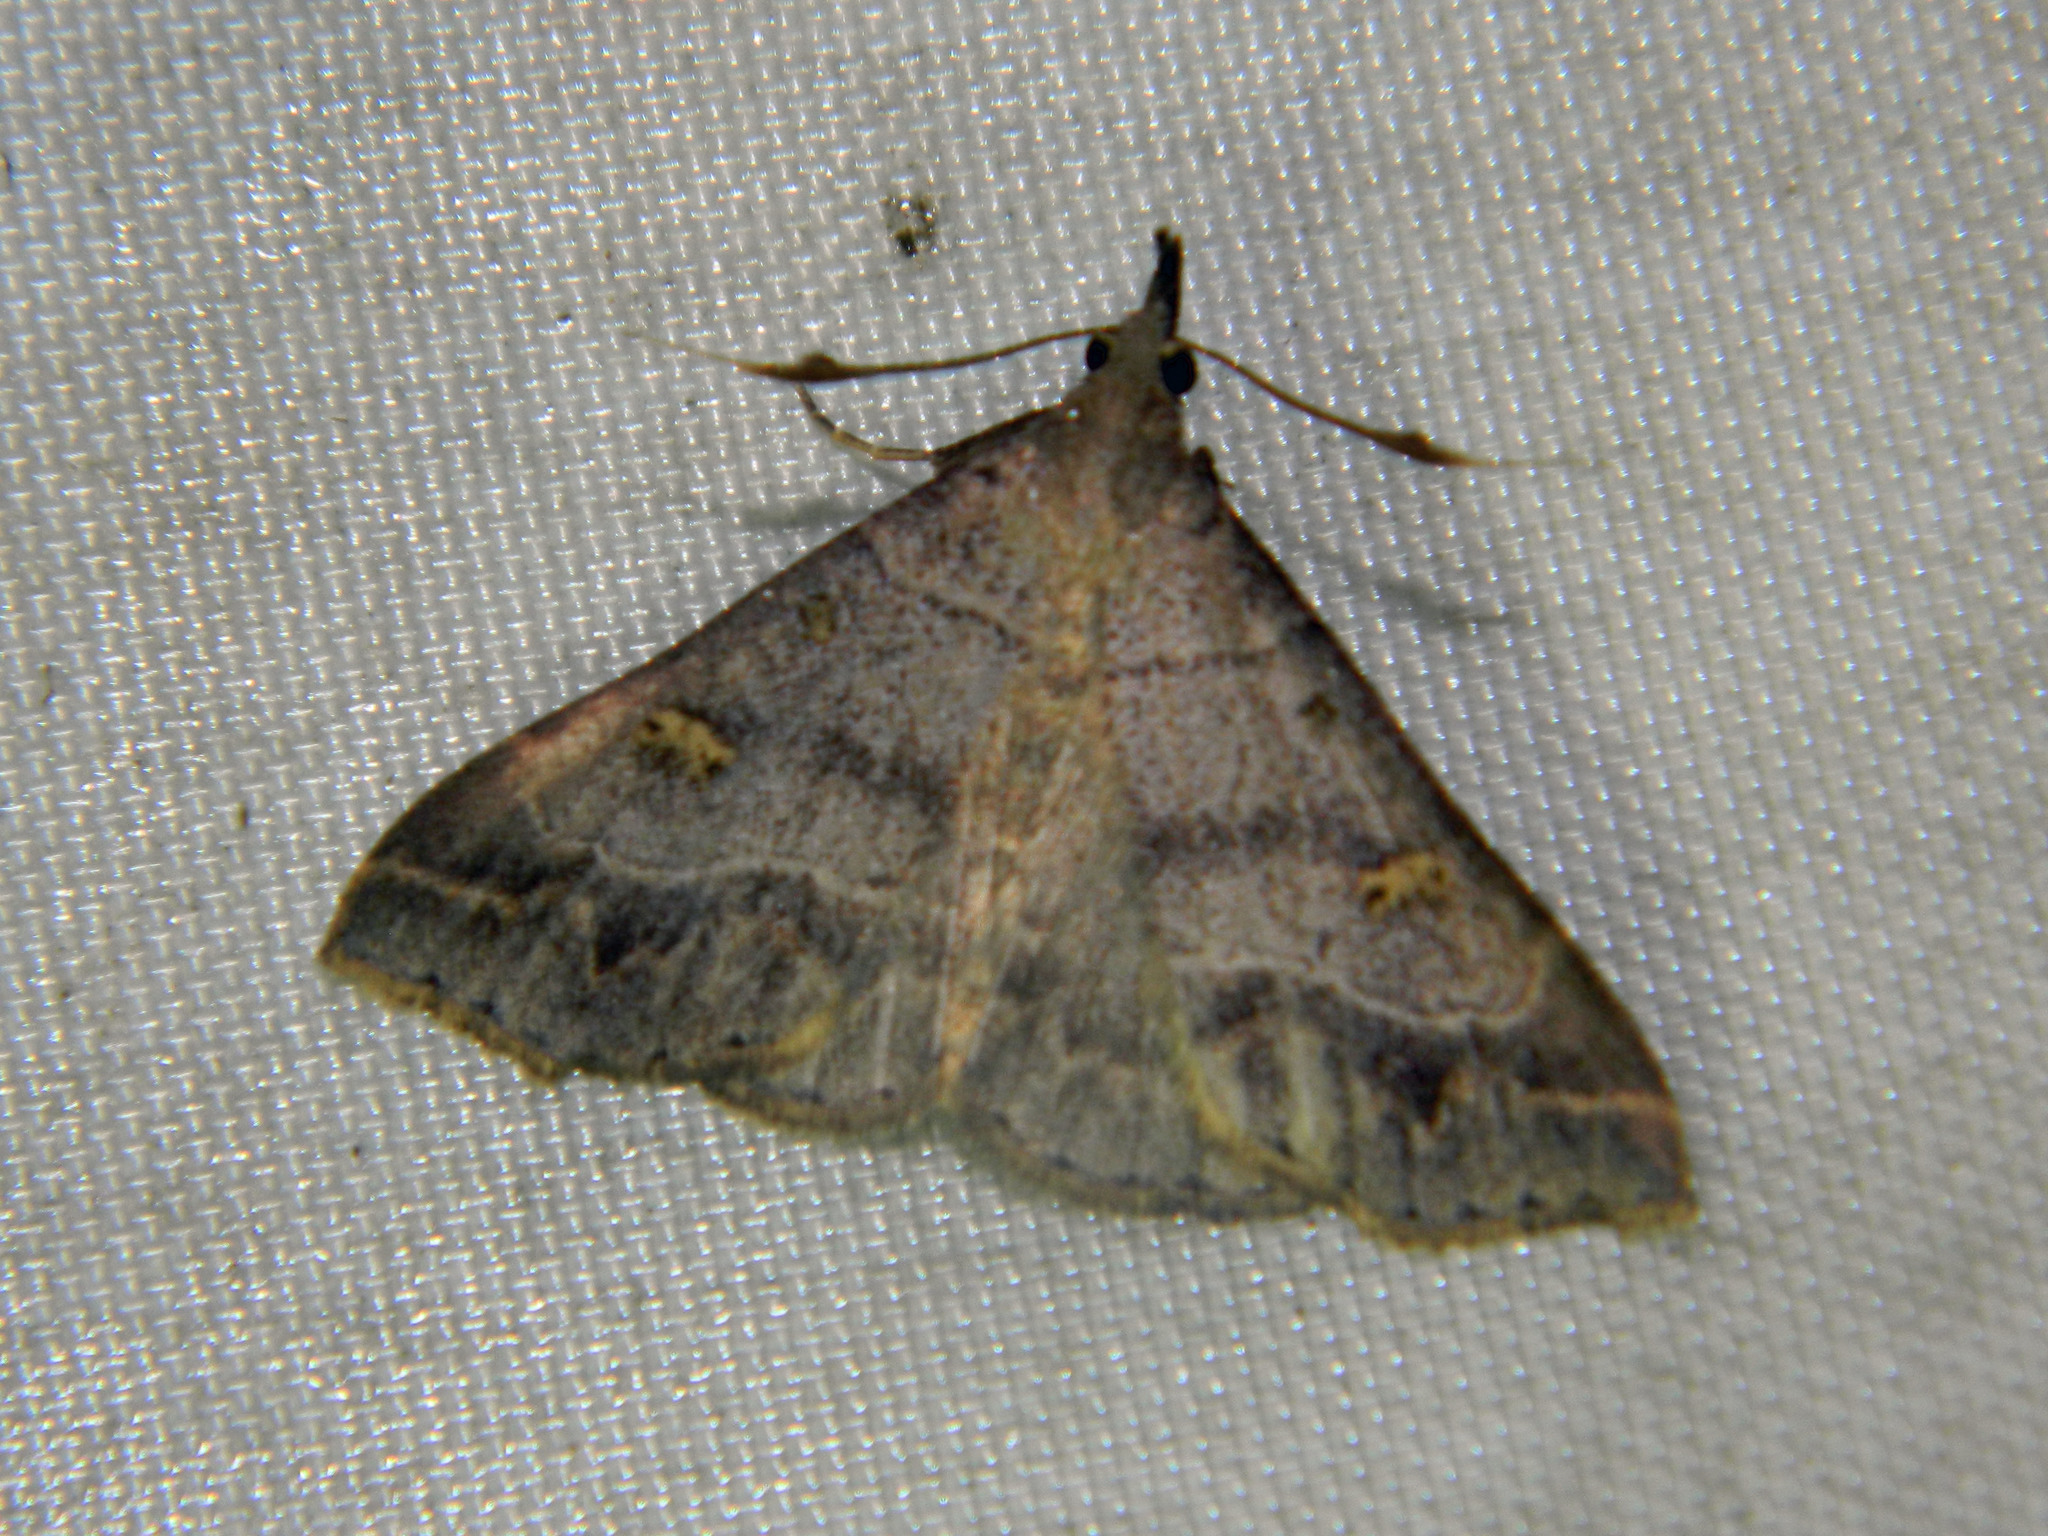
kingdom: Animalia
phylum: Arthropoda
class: Insecta
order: Lepidoptera
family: Erebidae
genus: Renia
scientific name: Renia flavipunctalis
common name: Yellow-spotted renia moth
